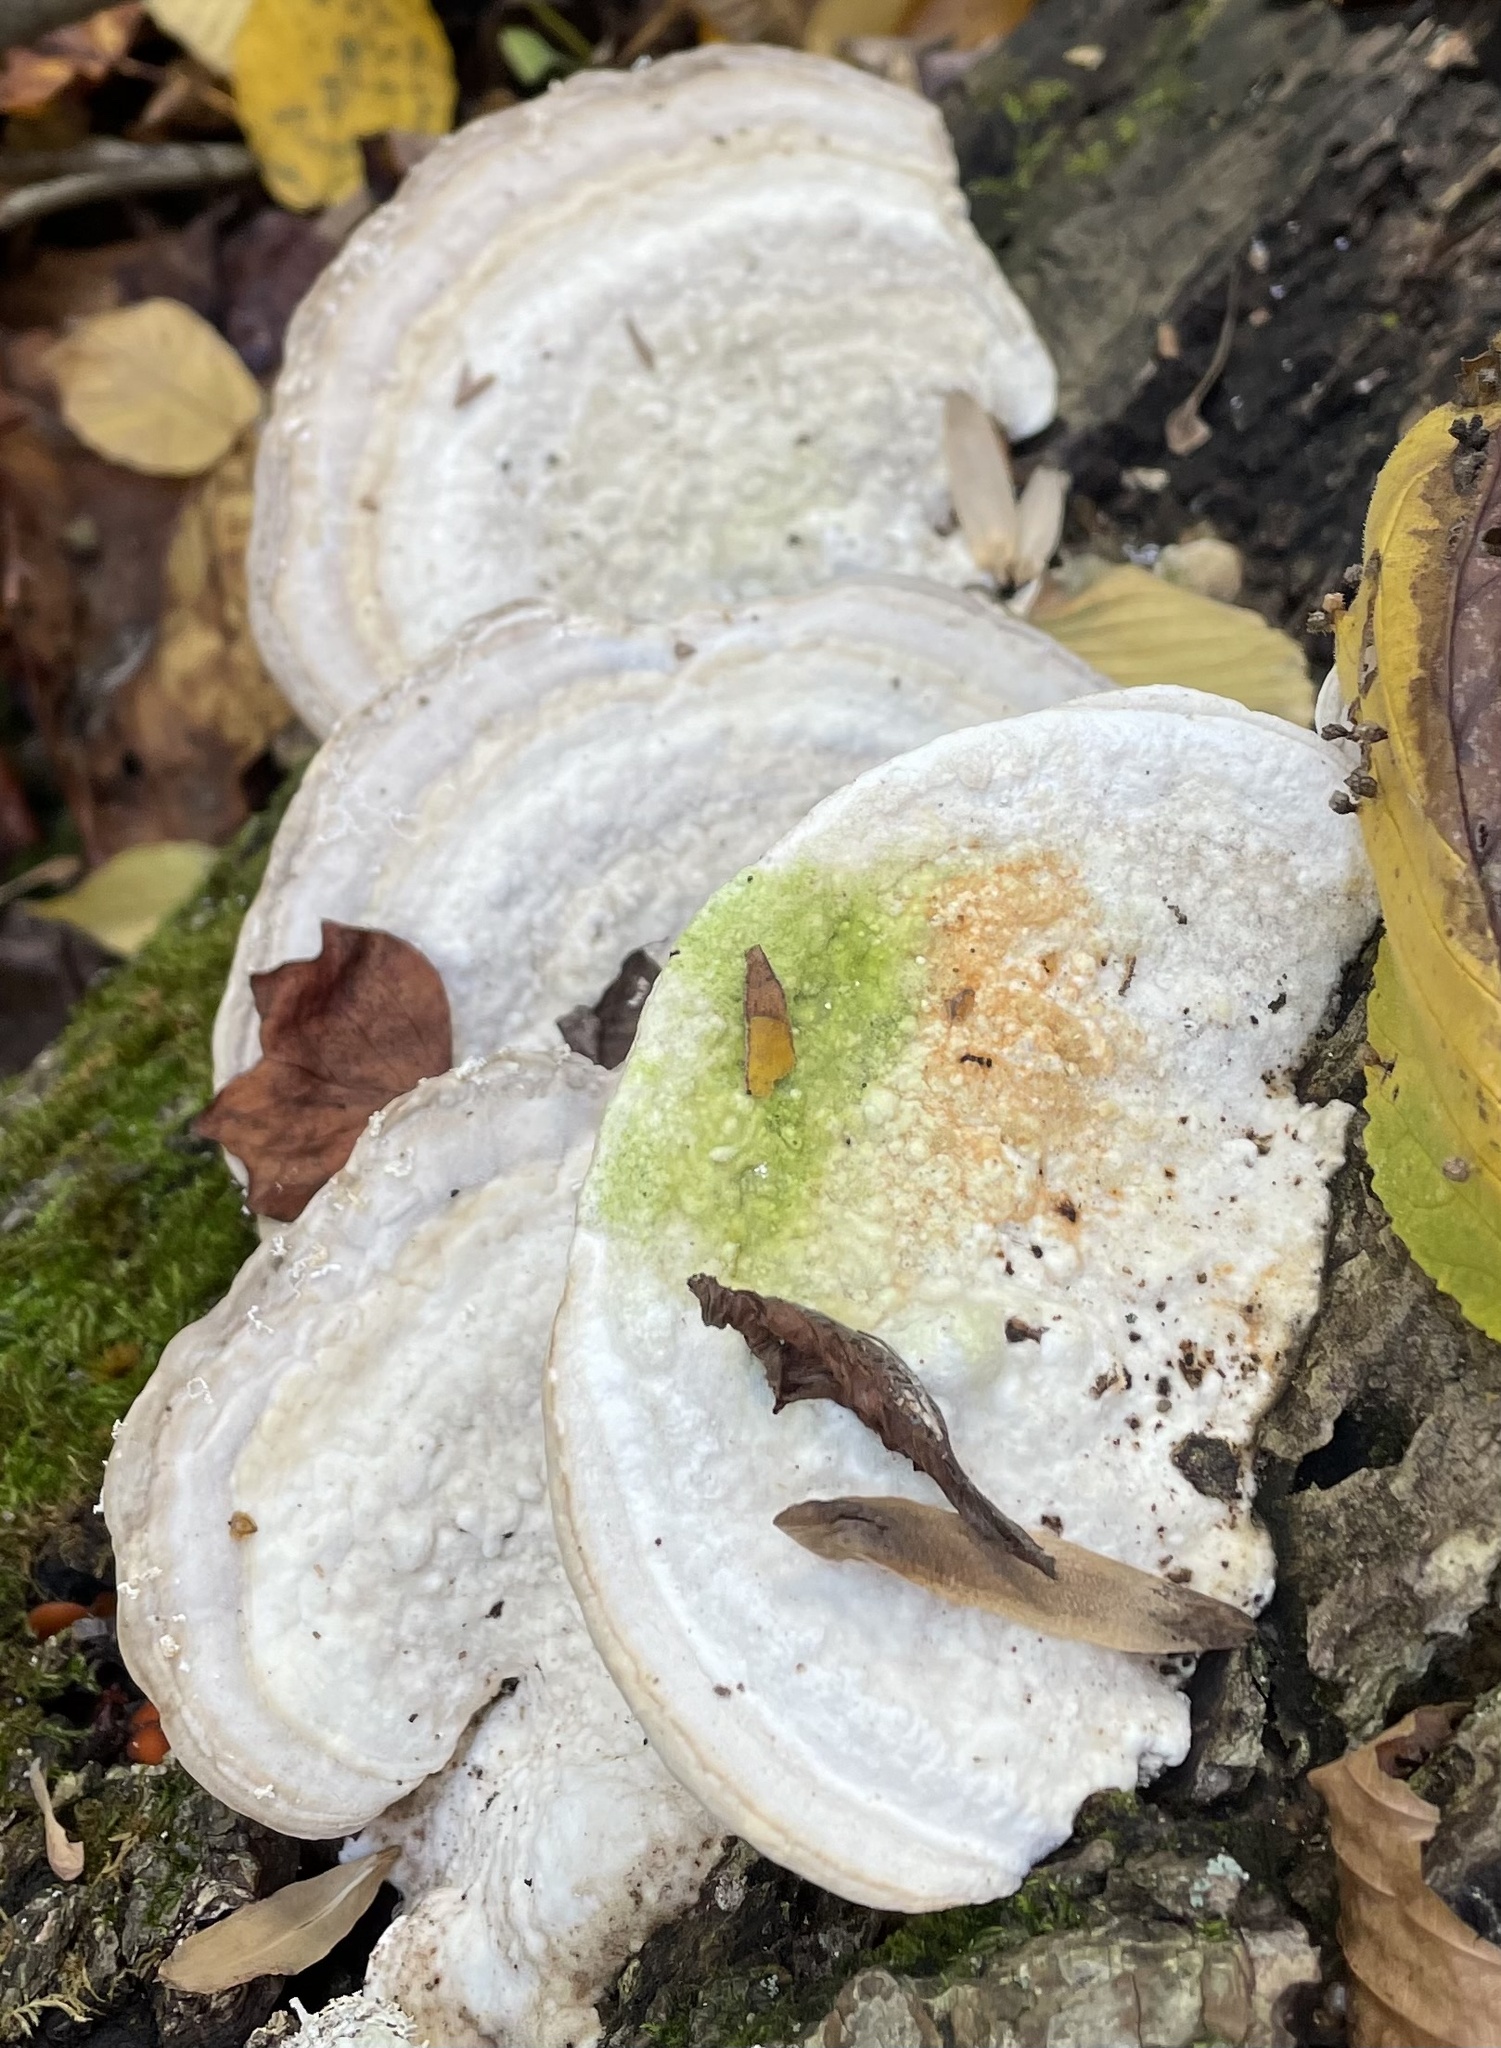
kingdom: Fungi
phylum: Basidiomycota
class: Agaricomycetes
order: Polyporales
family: Polyporaceae
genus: Trametes
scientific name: Trametes gibbosa
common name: Lumpy bracket
